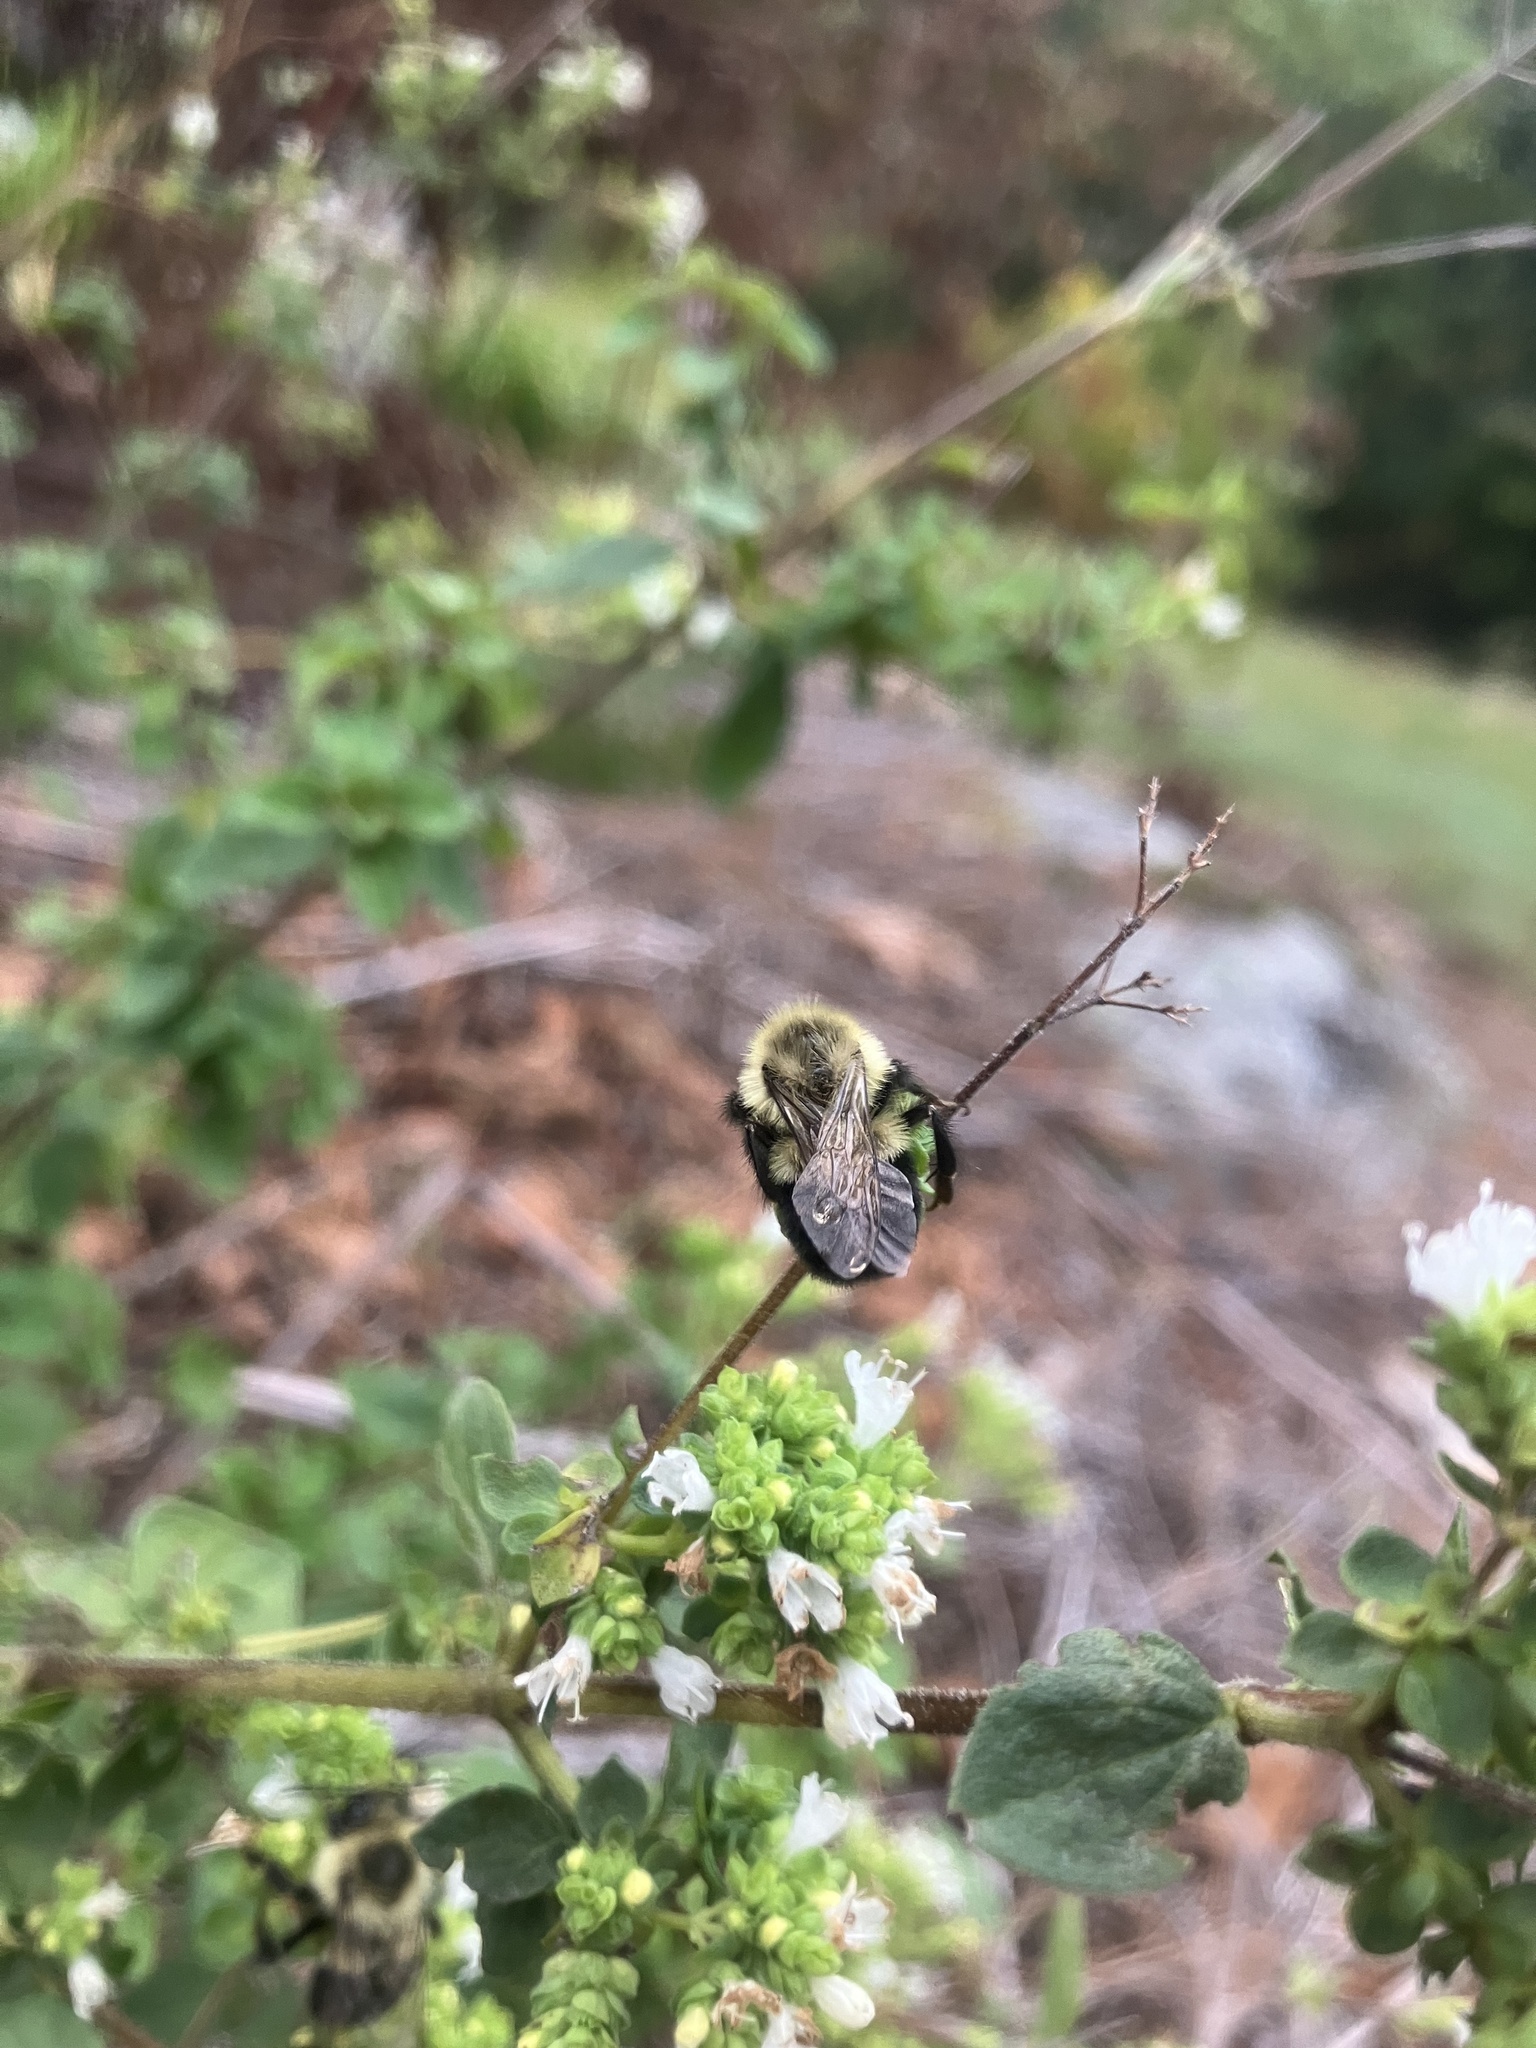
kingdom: Animalia
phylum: Arthropoda
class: Insecta
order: Hymenoptera
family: Apidae
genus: Bombus
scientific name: Bombus impatiens
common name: Common eastern bumble bee
